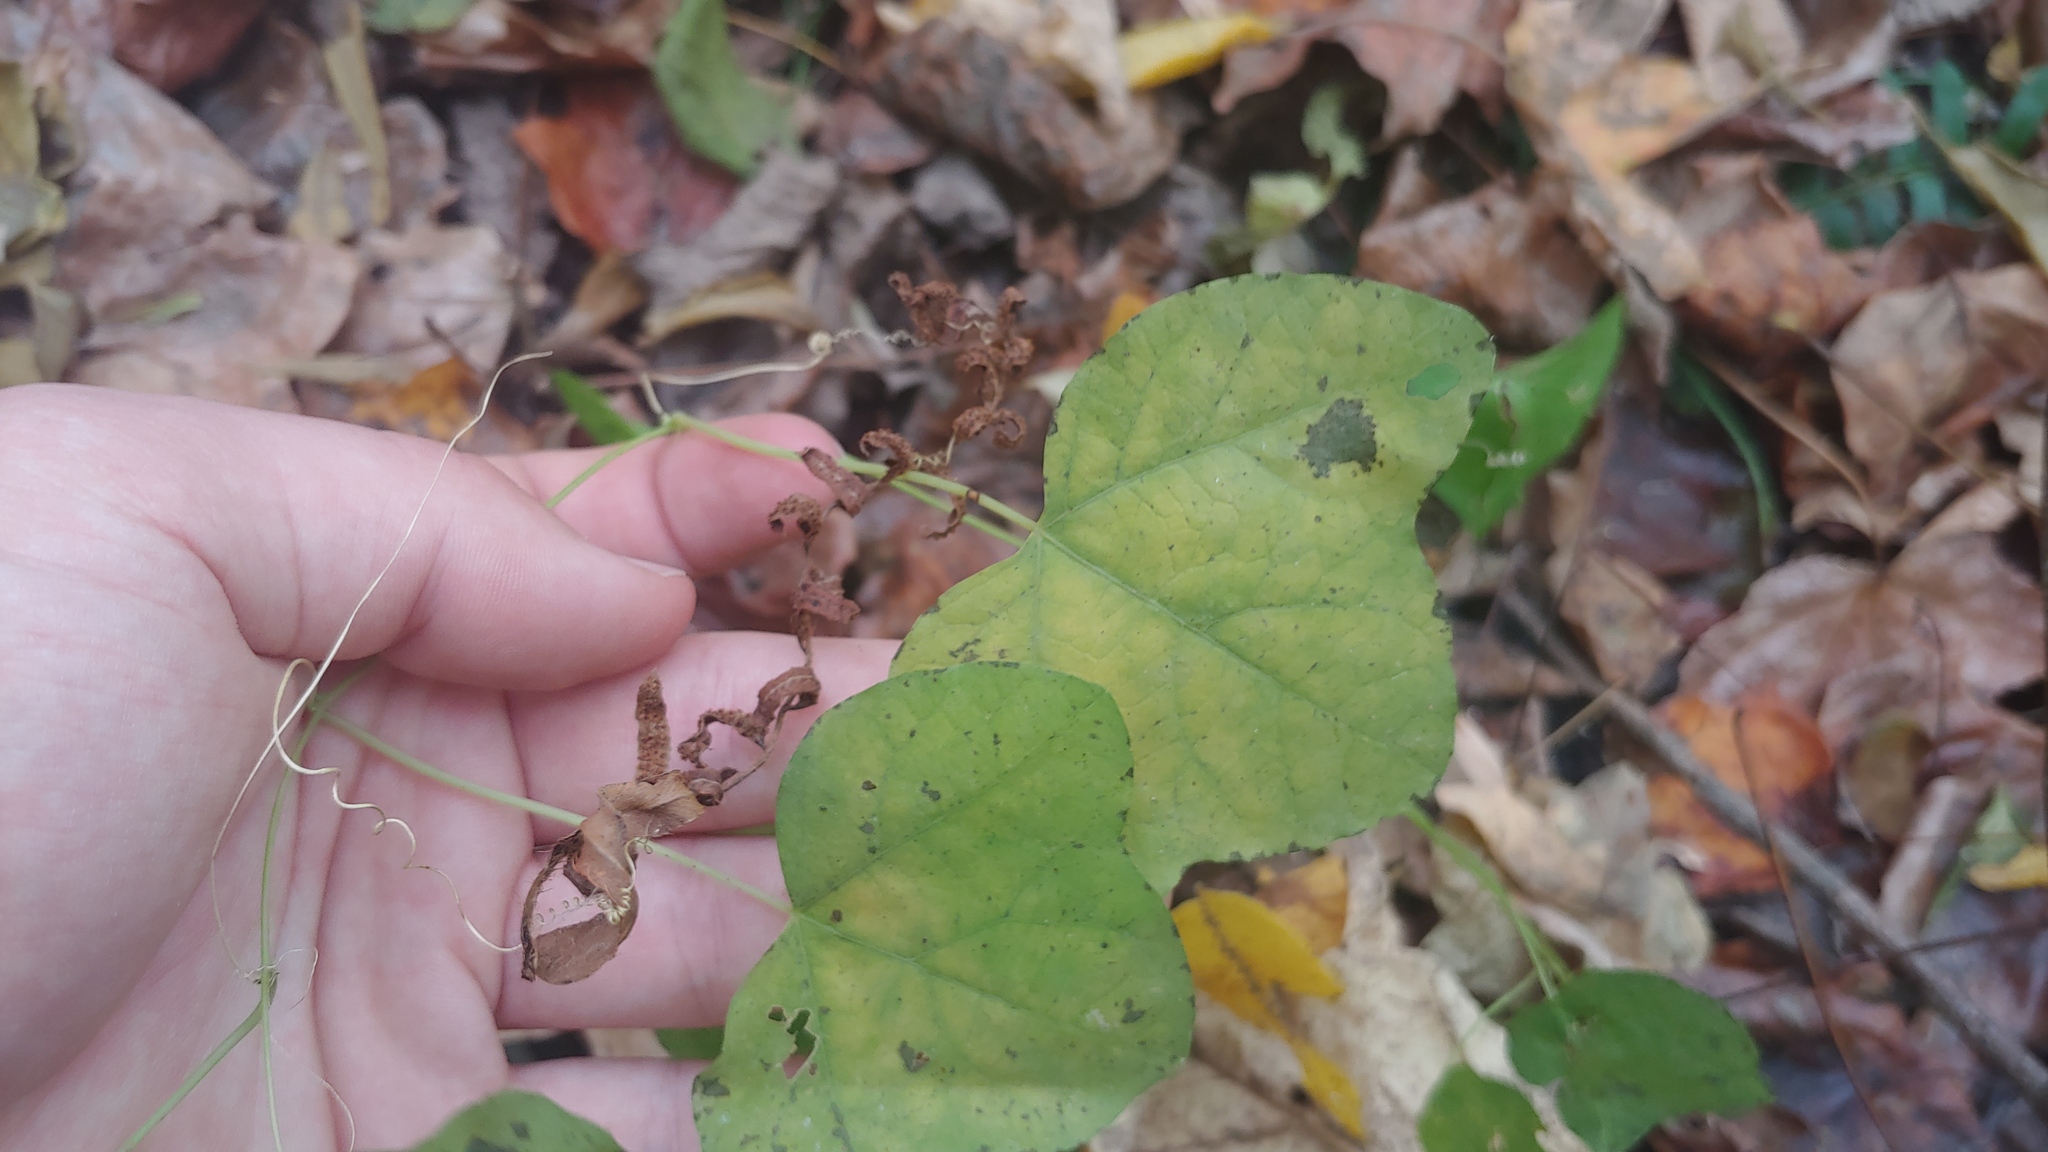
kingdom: Plantae
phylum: Tracheophyta
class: Magnoliopsida
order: Malpighiales
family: Passifloraceae
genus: Passiflora
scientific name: Passiflora lutea
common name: Yellow passionflower
